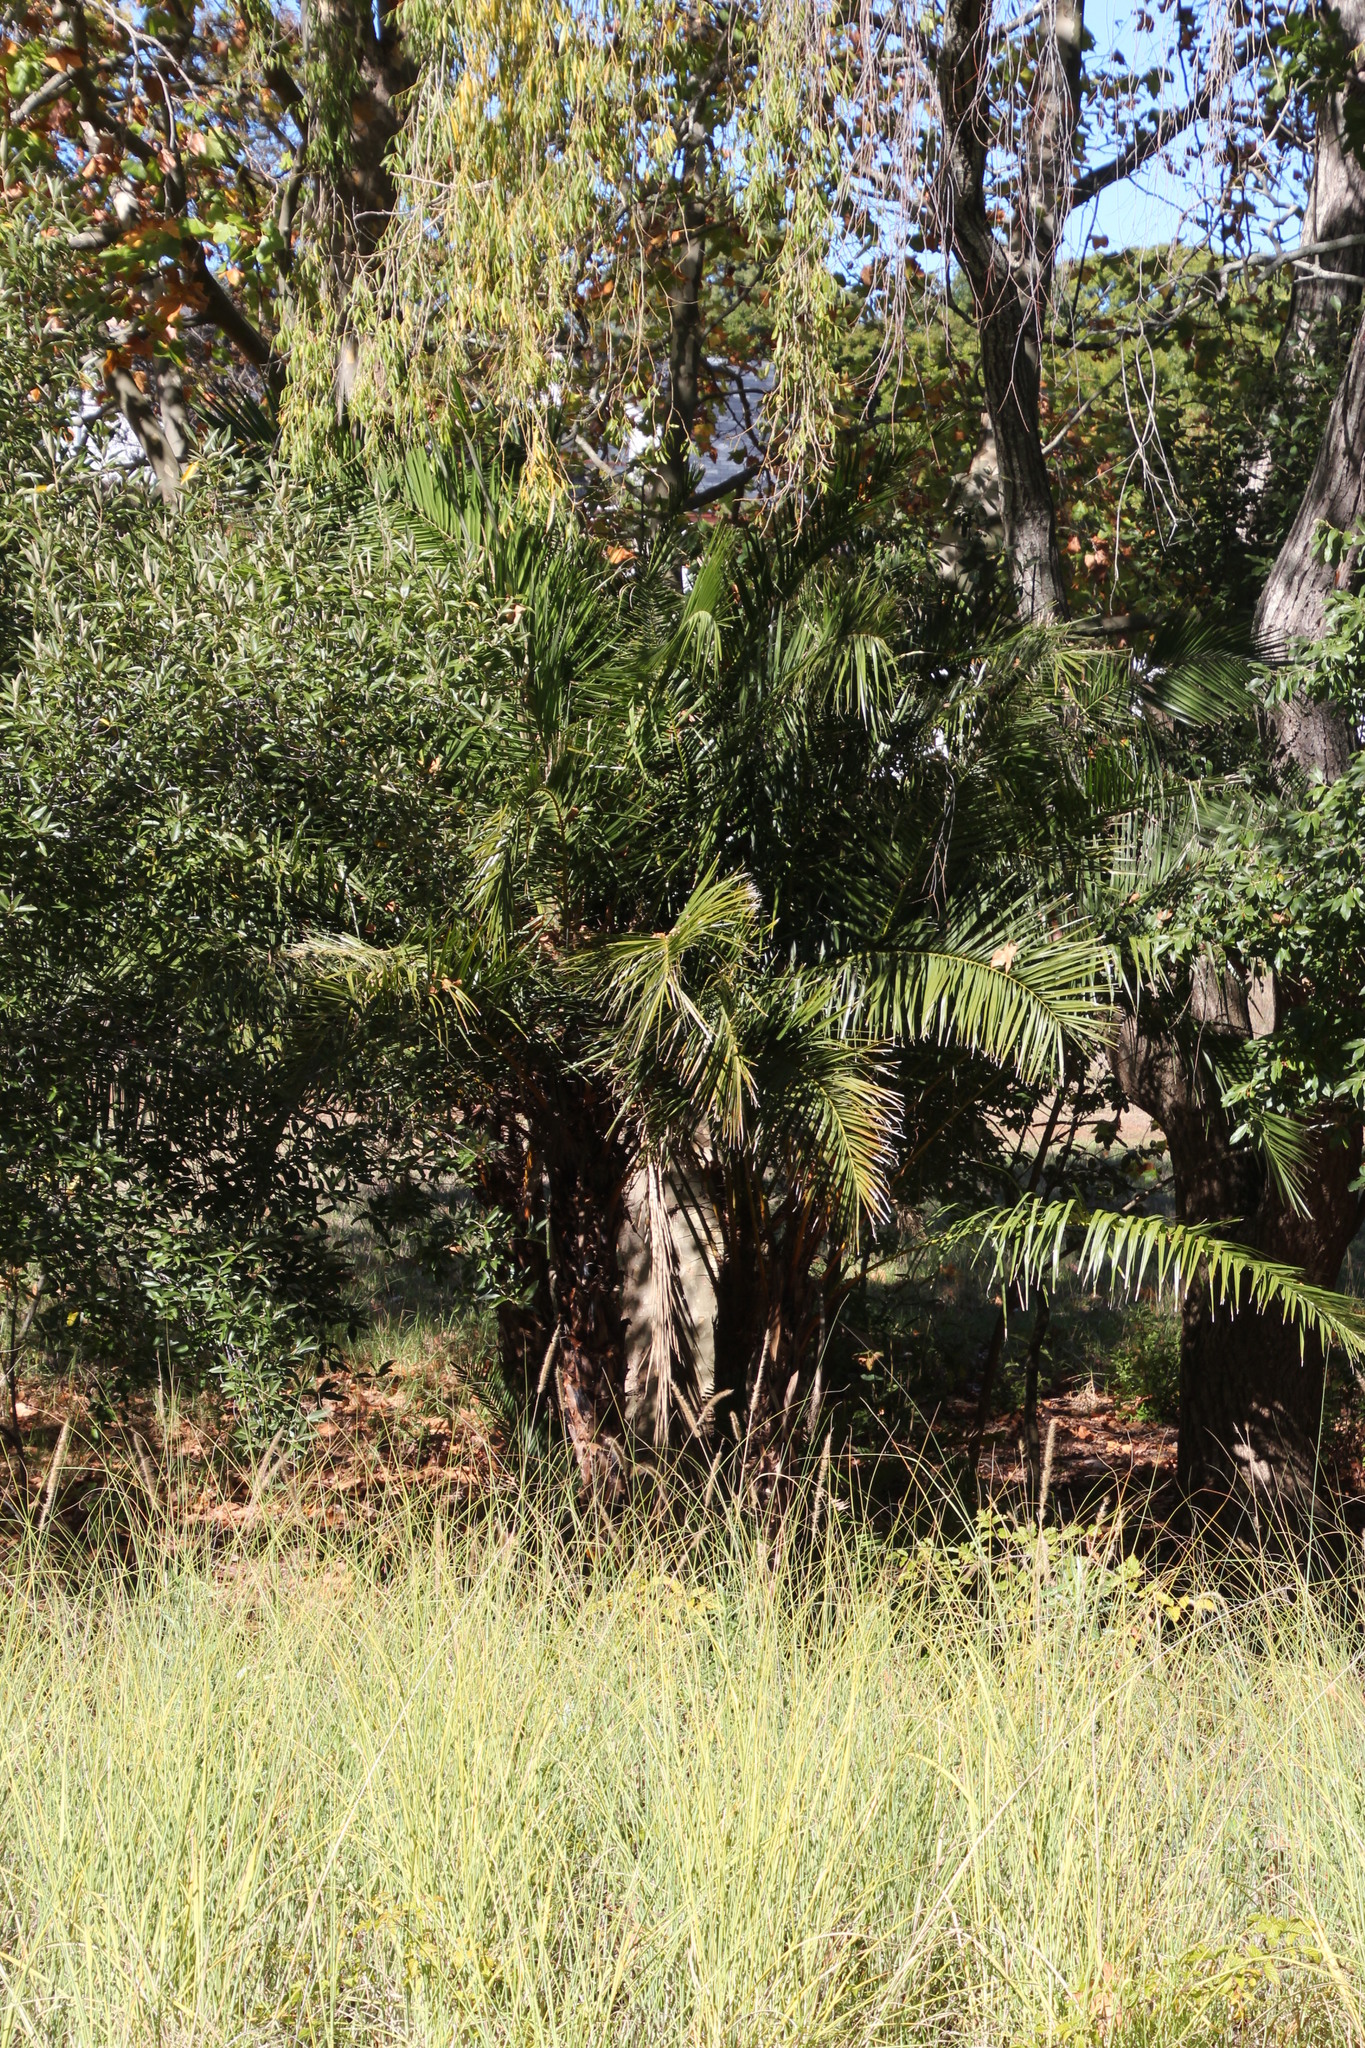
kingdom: Plantae
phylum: Tracheophyta
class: Liliopsida
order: Arecales
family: Arecaceae
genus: Phoenix
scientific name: Phoenix canariensis
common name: Canary island date palm
